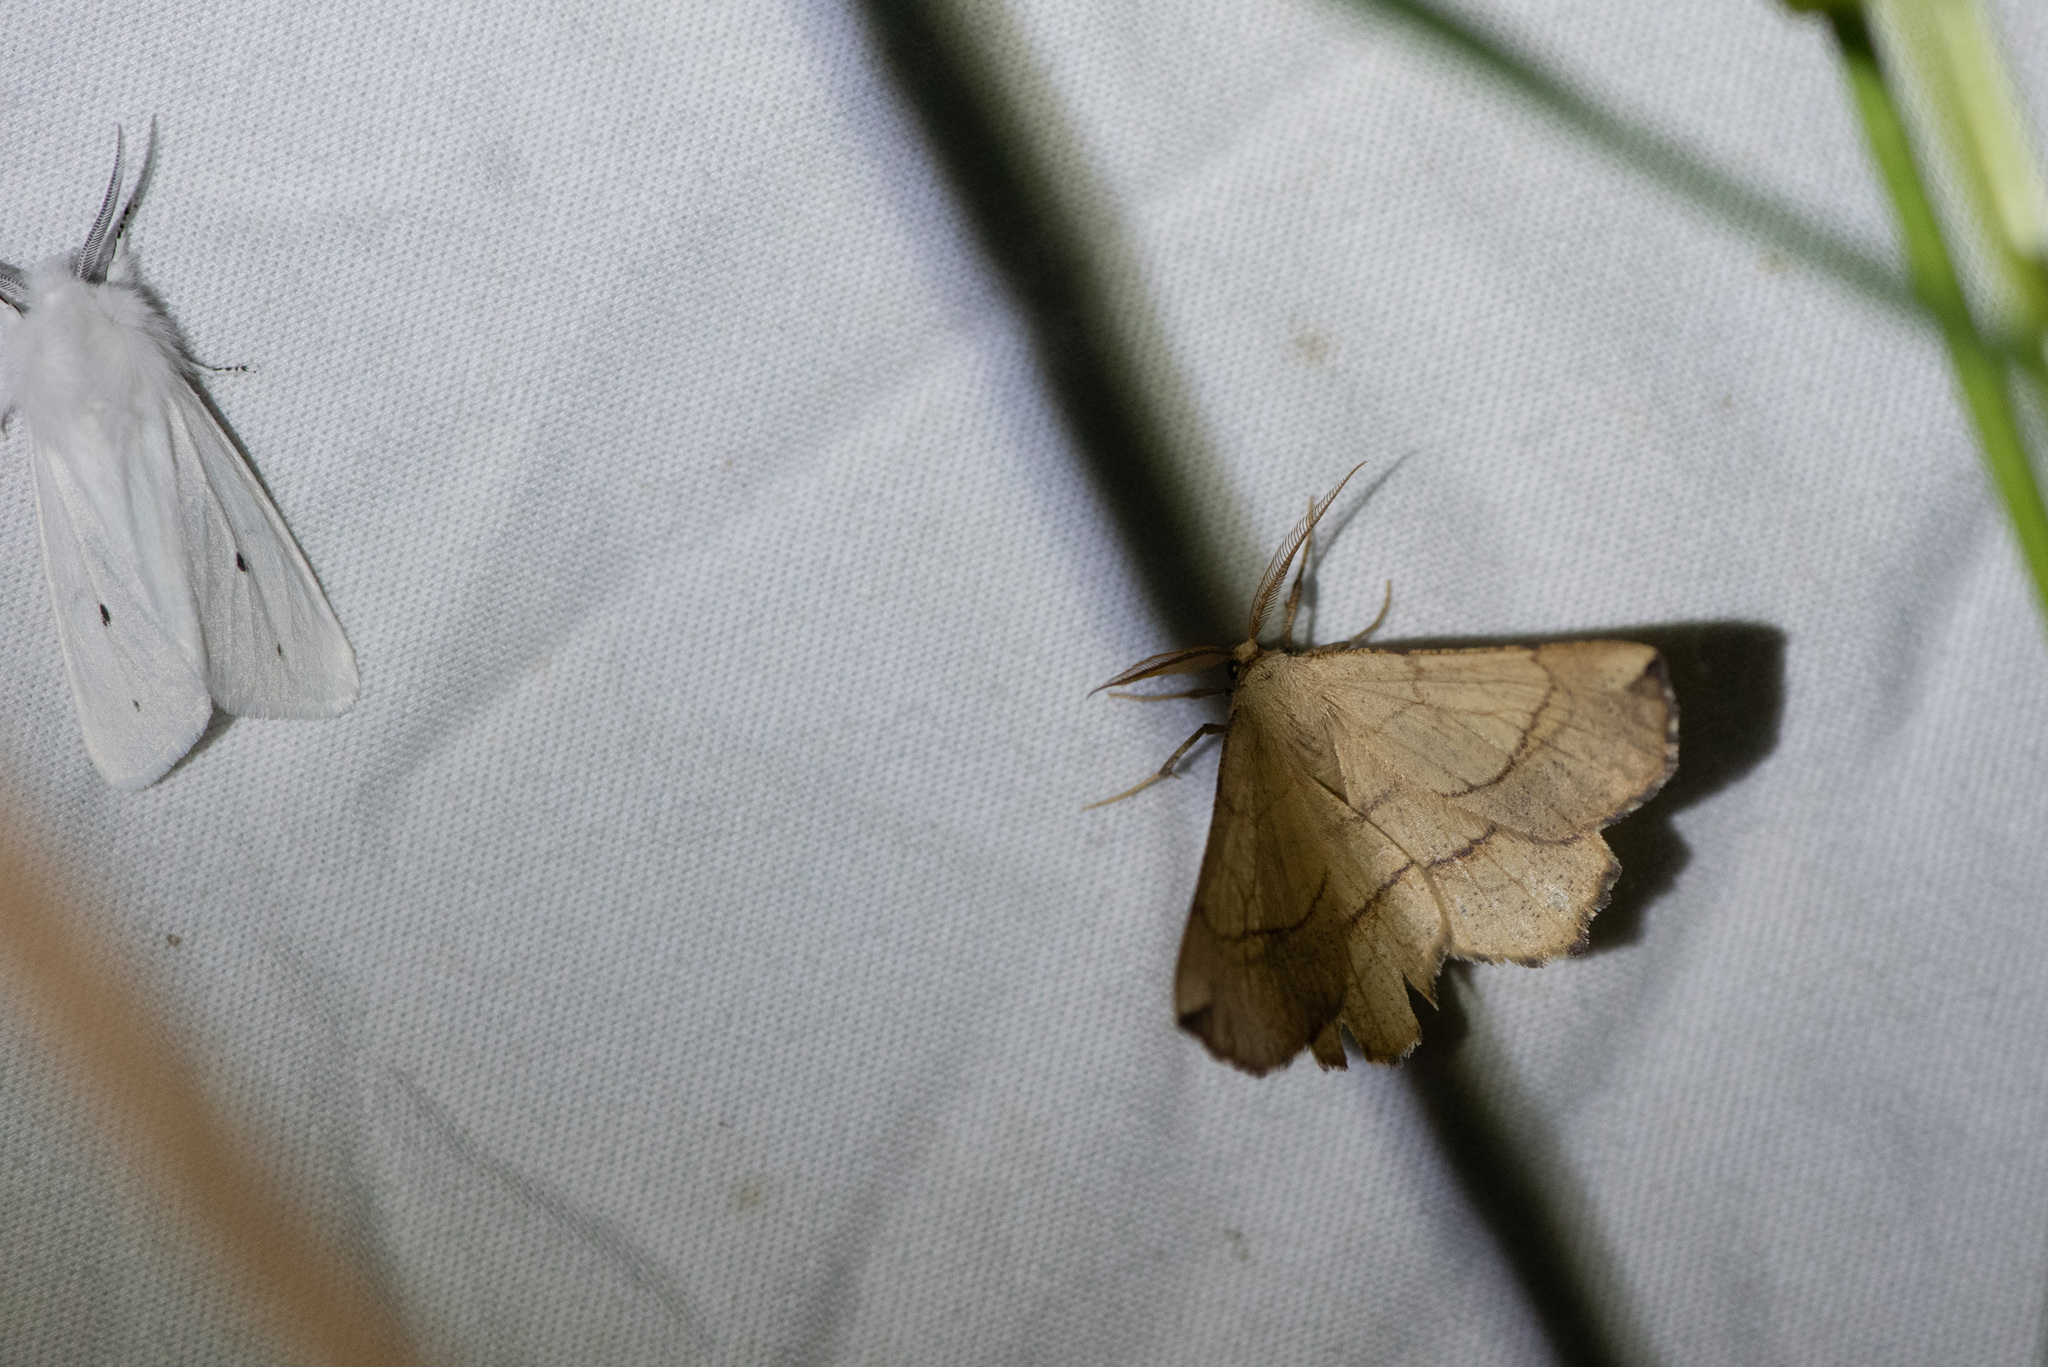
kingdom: Animalia
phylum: Arthropoda
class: Insecta
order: Lepidoptera
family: Geometridae
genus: Euchlaena
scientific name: Euchlaena madusaria
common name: Scrub euchlaena moth
